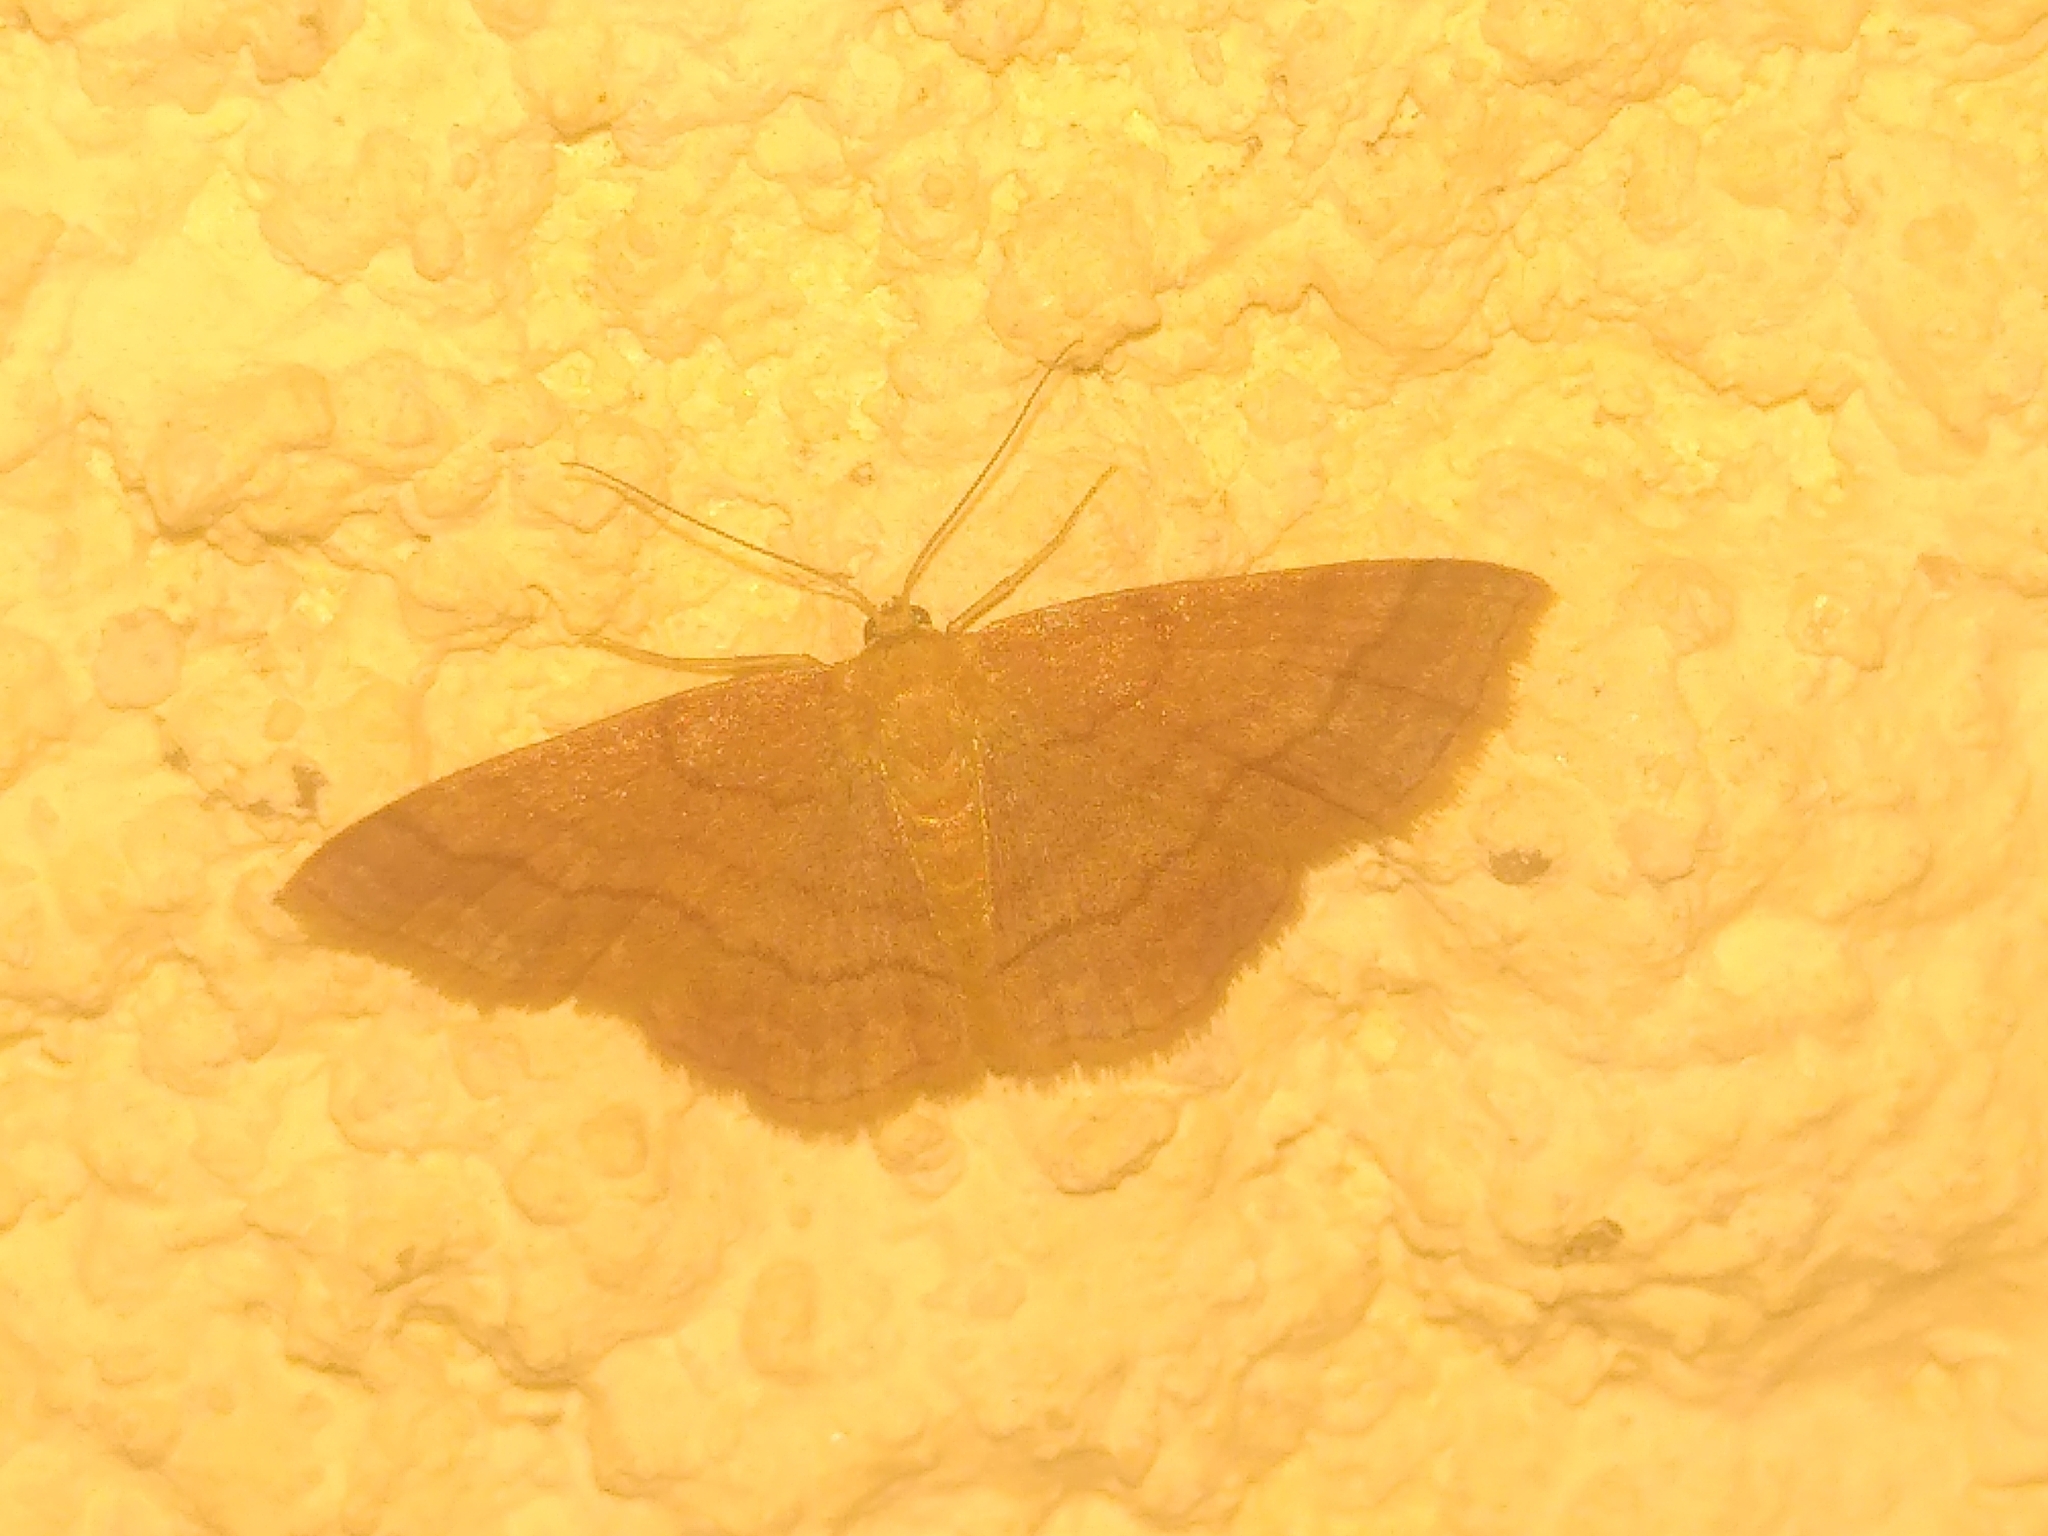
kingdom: Animalia
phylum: Arthropoda
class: Insecta
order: Lepidoptera
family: Geometridae
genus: Scopula
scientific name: Scopula rubiginata
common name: Tawny wave
